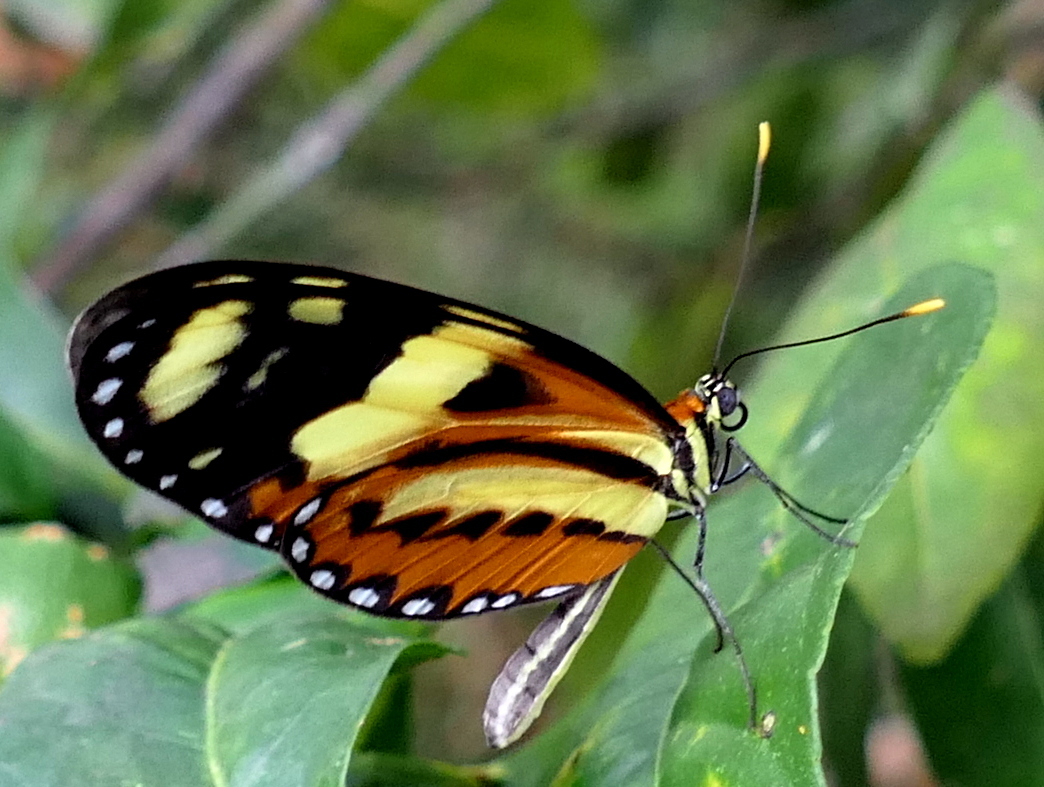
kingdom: Animalia
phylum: Arthropoda
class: Insecta
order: Lepidoptera
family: Nymphalidae
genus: Mechanitis
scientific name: Mechanitis lysimnia
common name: Lysimnia tigerwing
